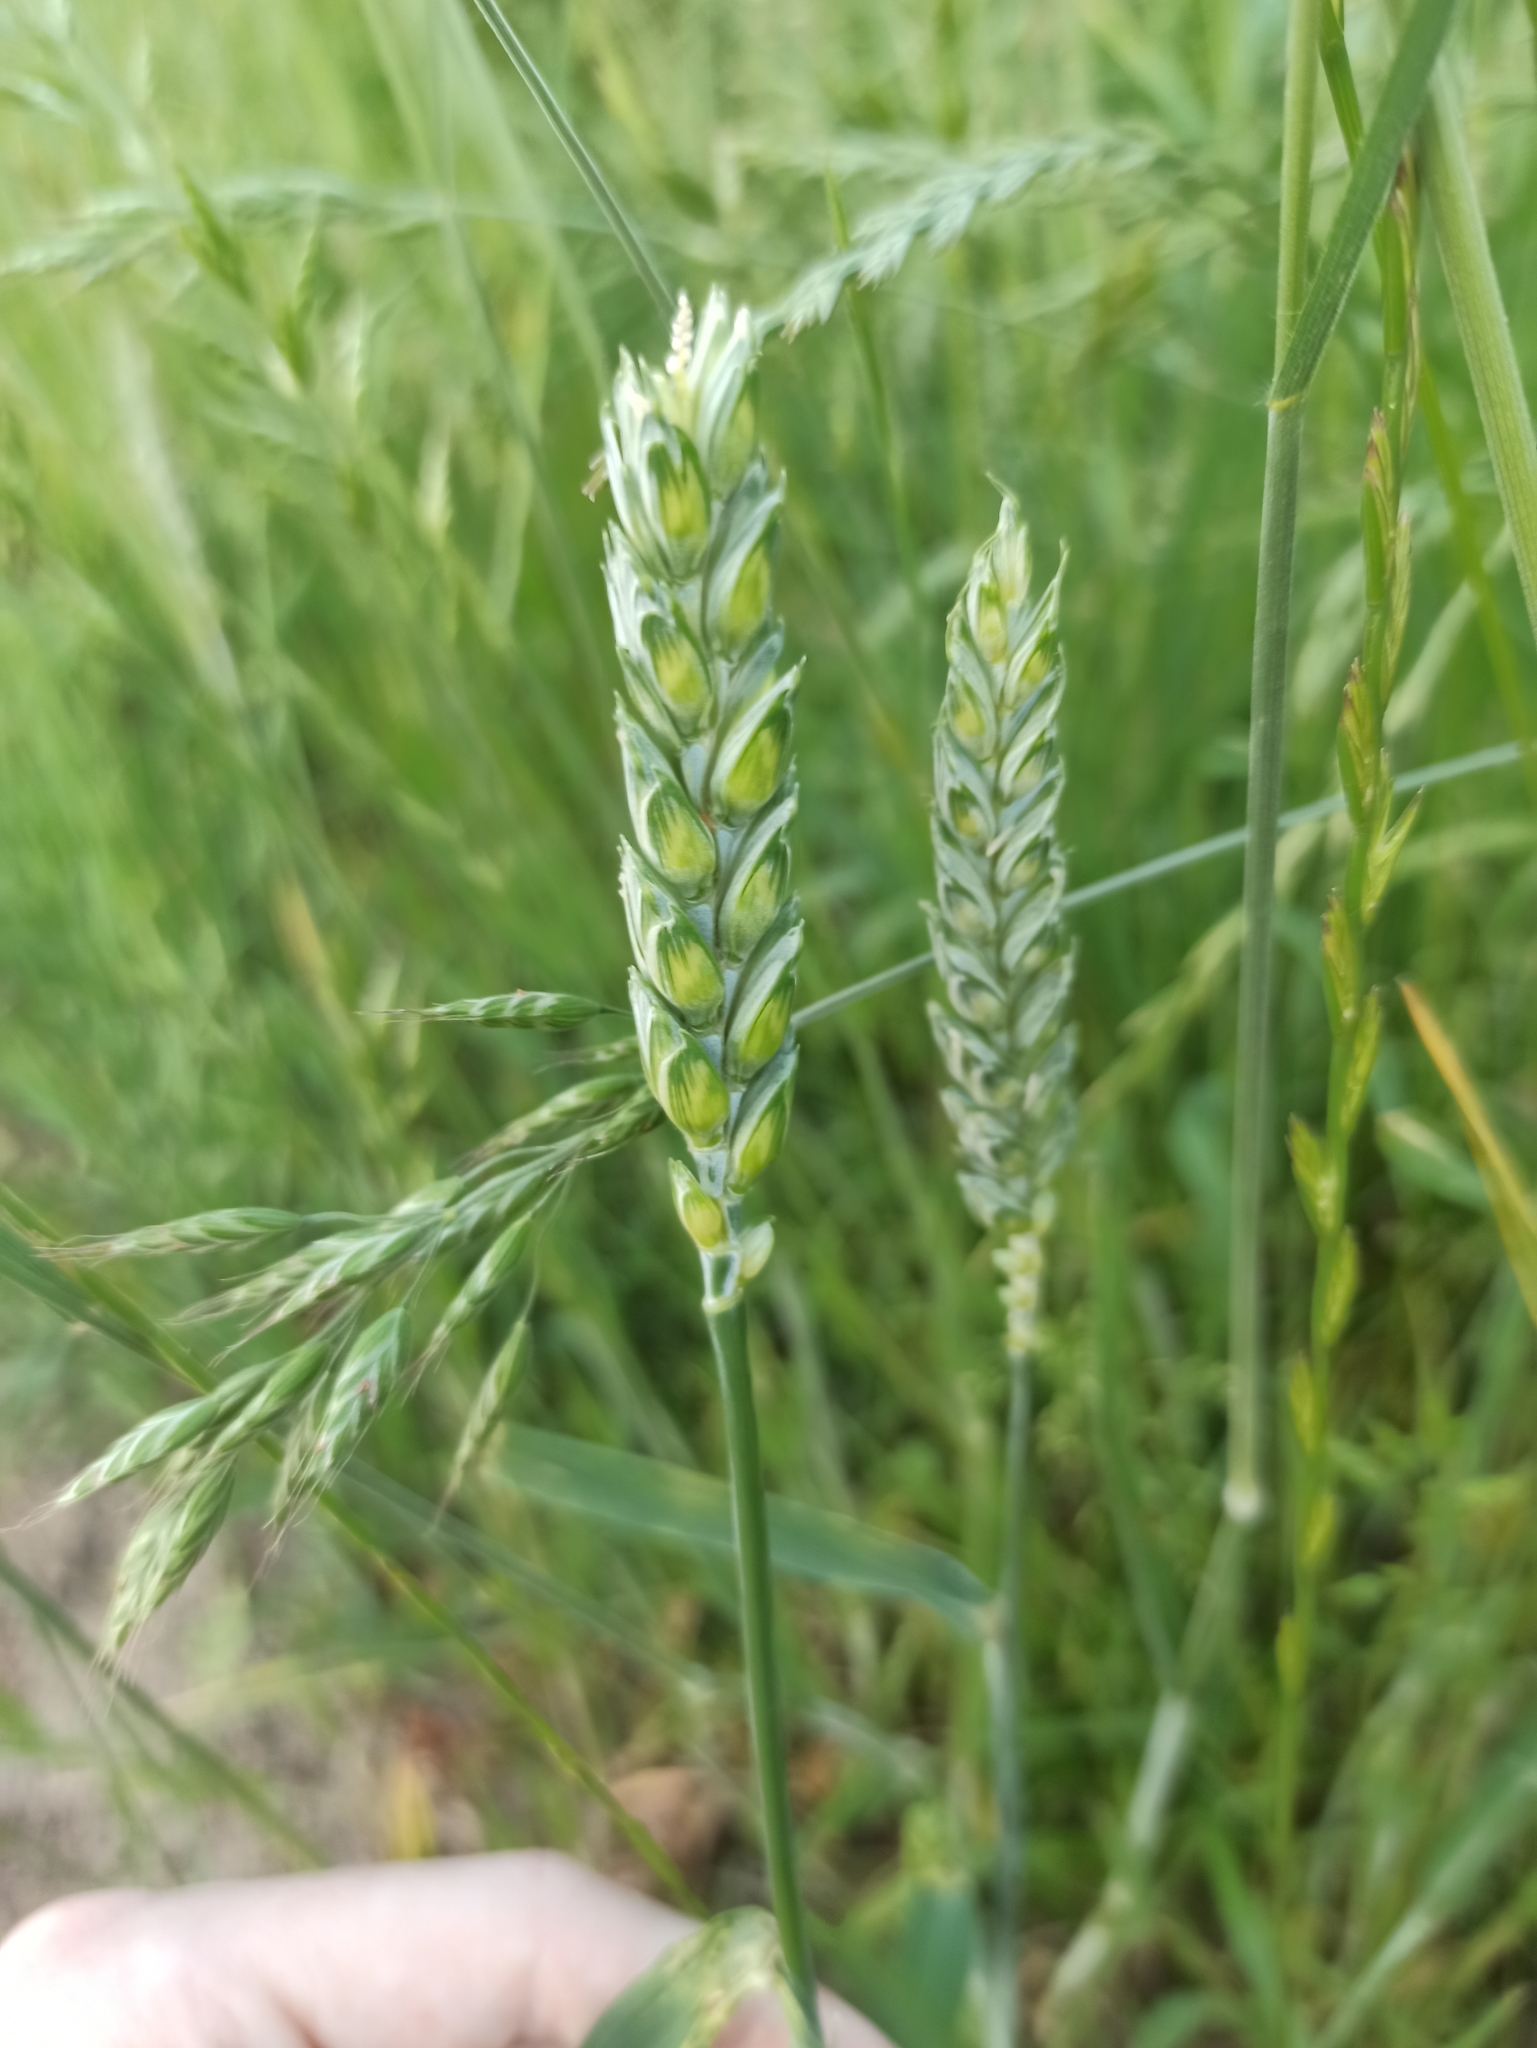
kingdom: Plantae
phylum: Tracheophyta
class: Liliopsida
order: Poales
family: Poaceae
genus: Triticum
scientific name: Triticum aestivum
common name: Common wheat
